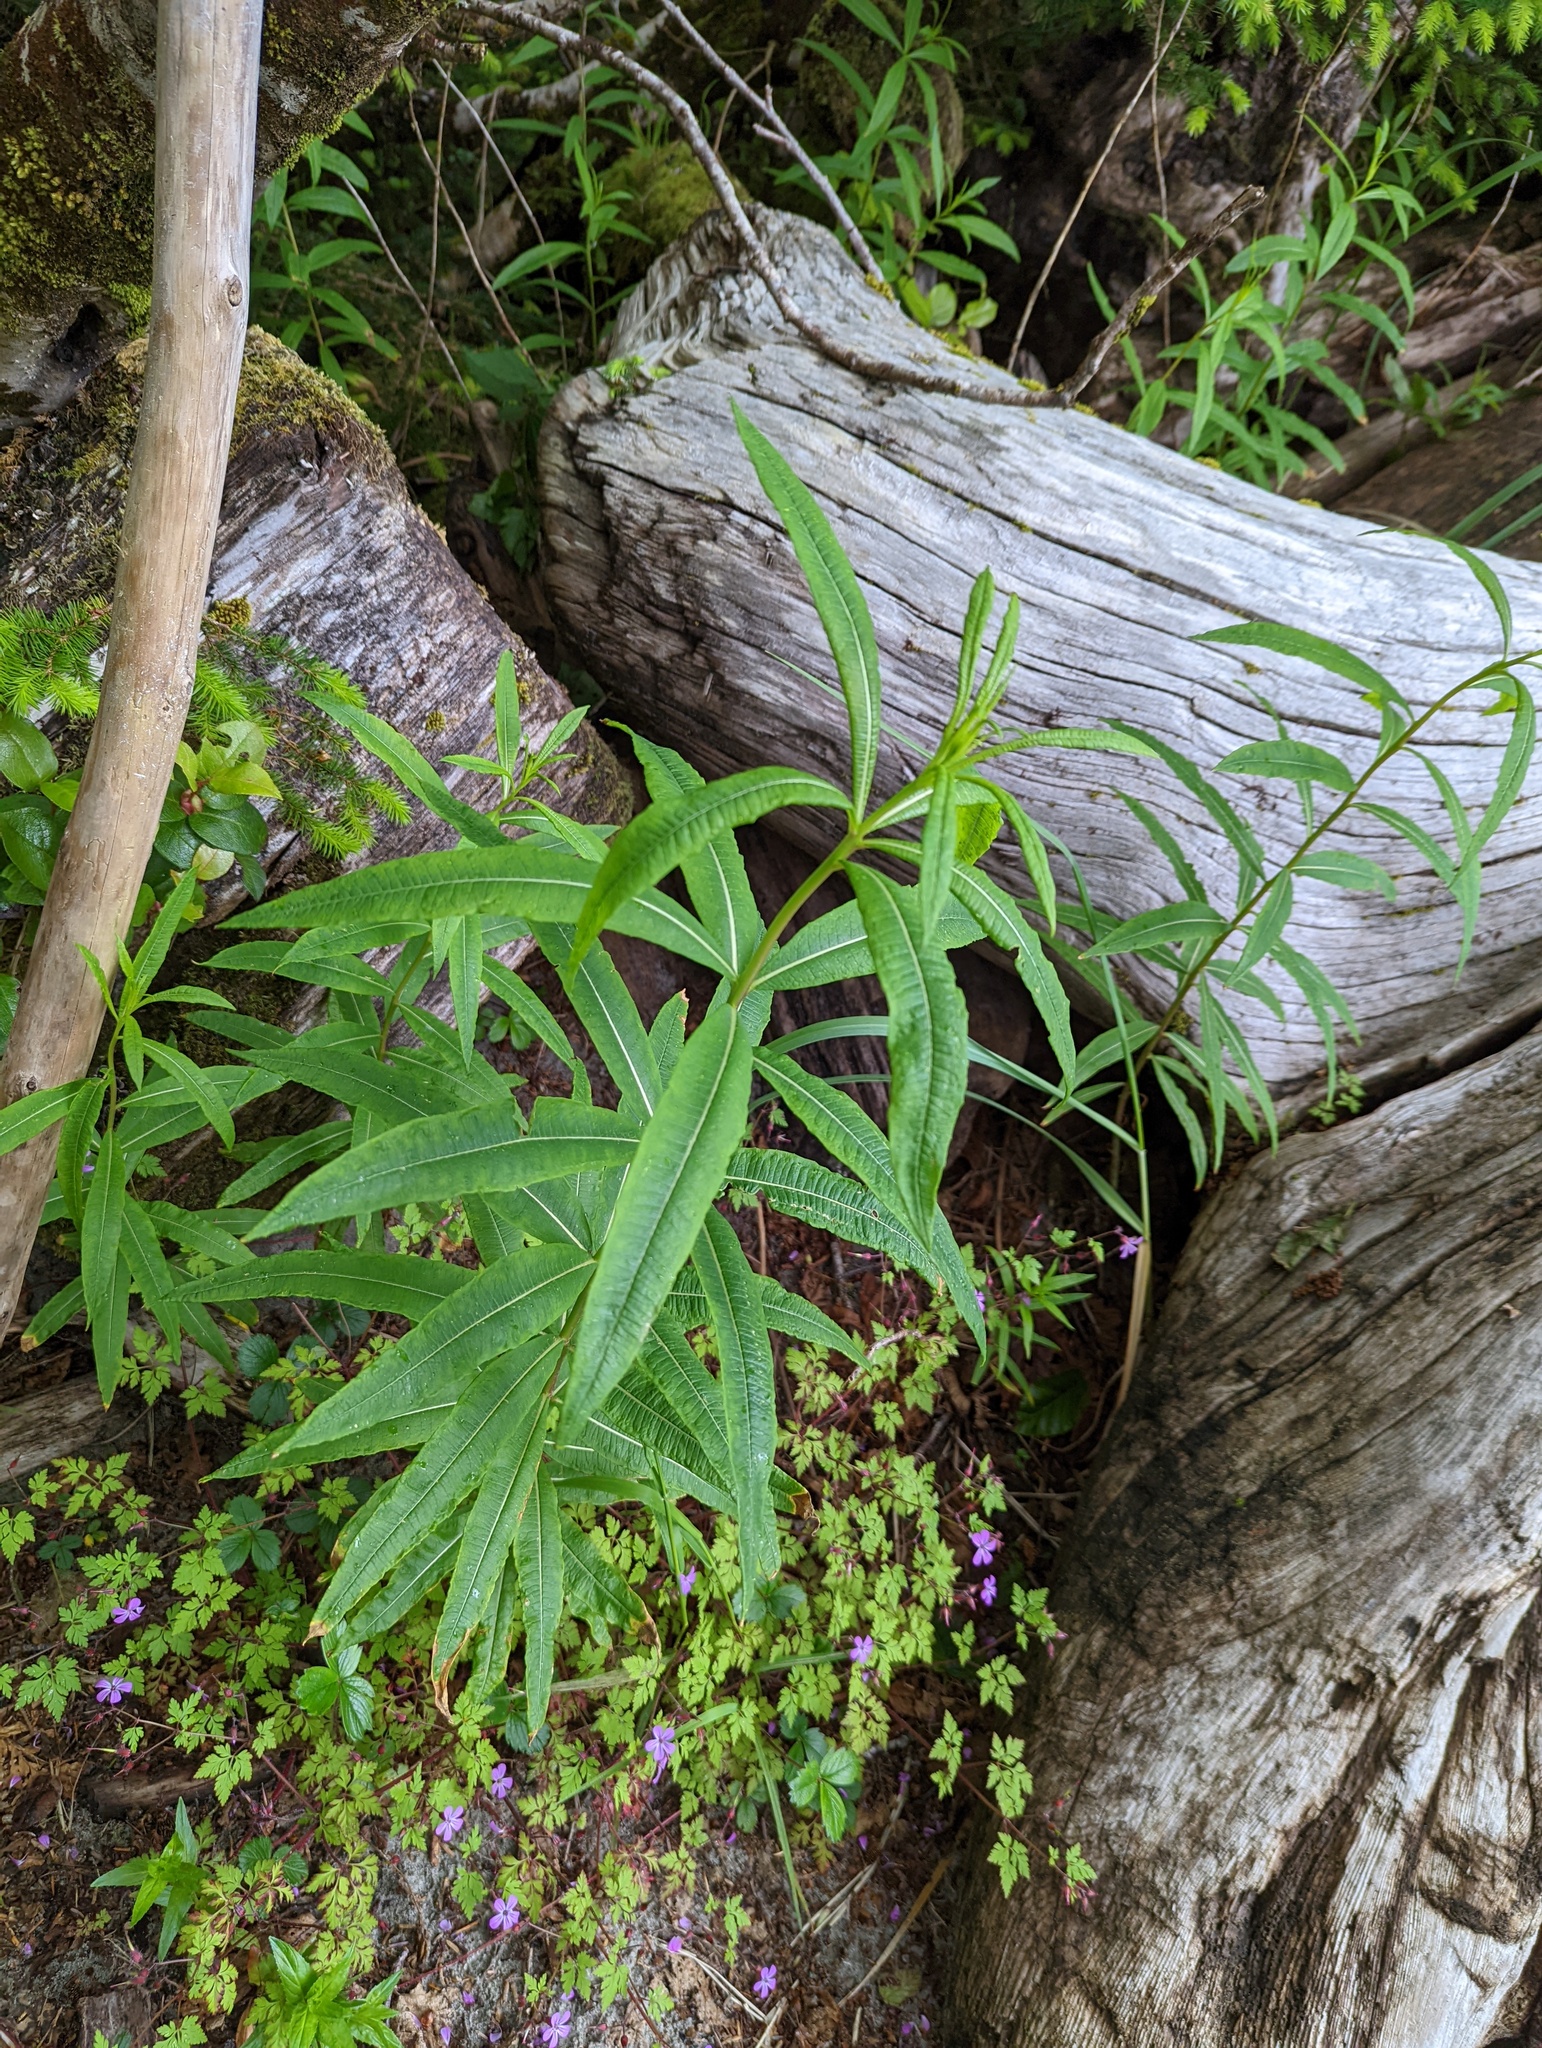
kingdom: Plantae
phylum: Tracheophyta
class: Magnoliopsida
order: Myrtales
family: Onagraceae
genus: Chamaenerion
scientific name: Chamaenerion angustifolium
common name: Fireweed
